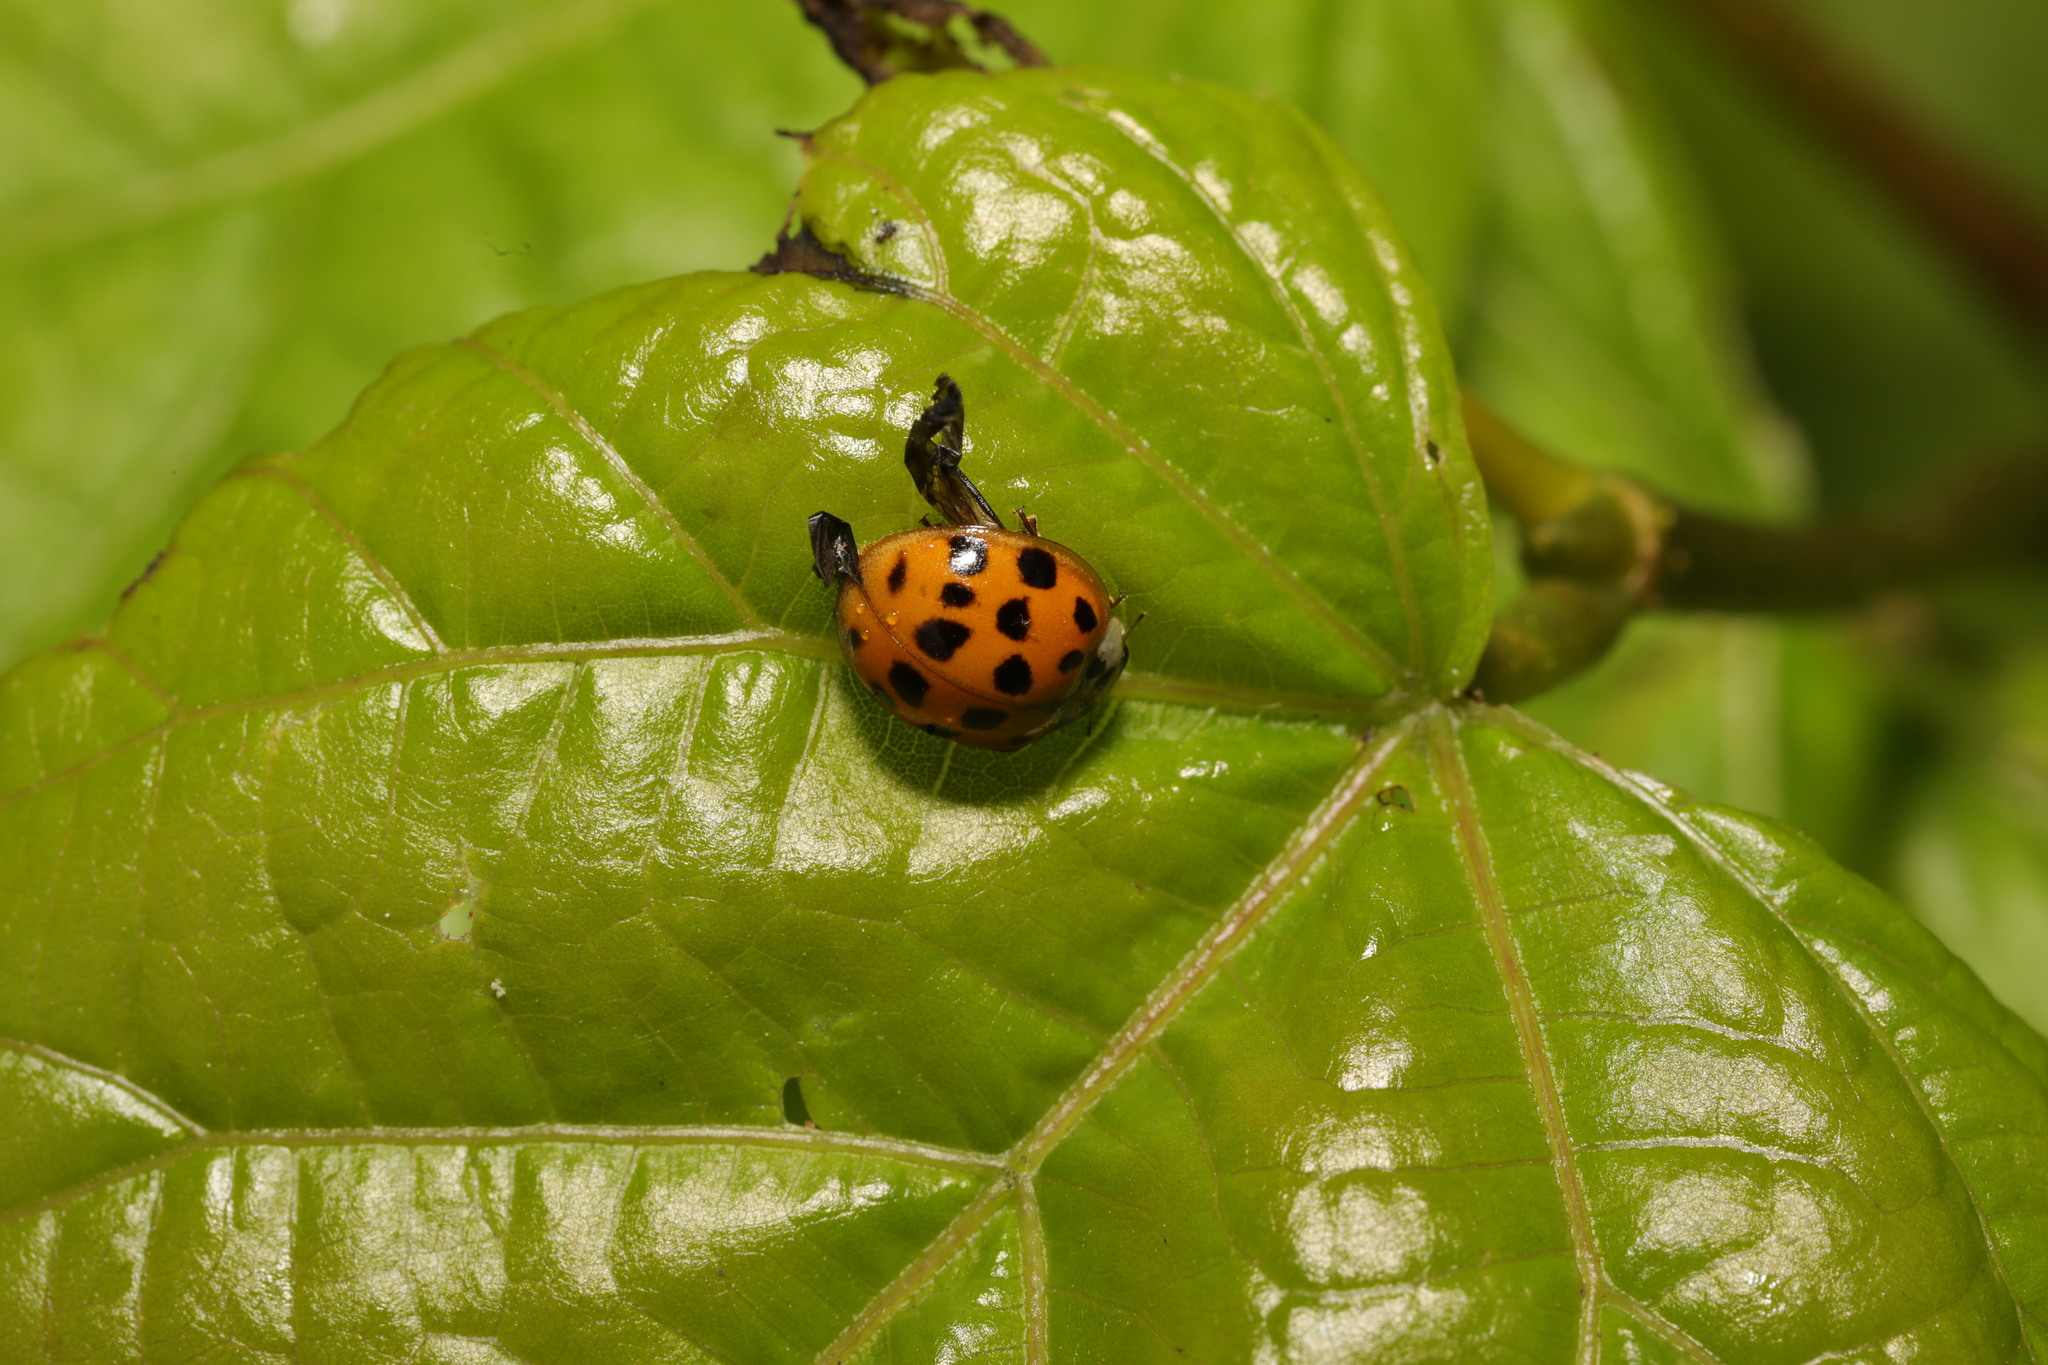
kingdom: Animalia
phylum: Arthropoda
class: Insecta
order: Coleoptera
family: Coccinellidae
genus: Harmonia
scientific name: Harmonia axyridis
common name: Harlequin ladybird
